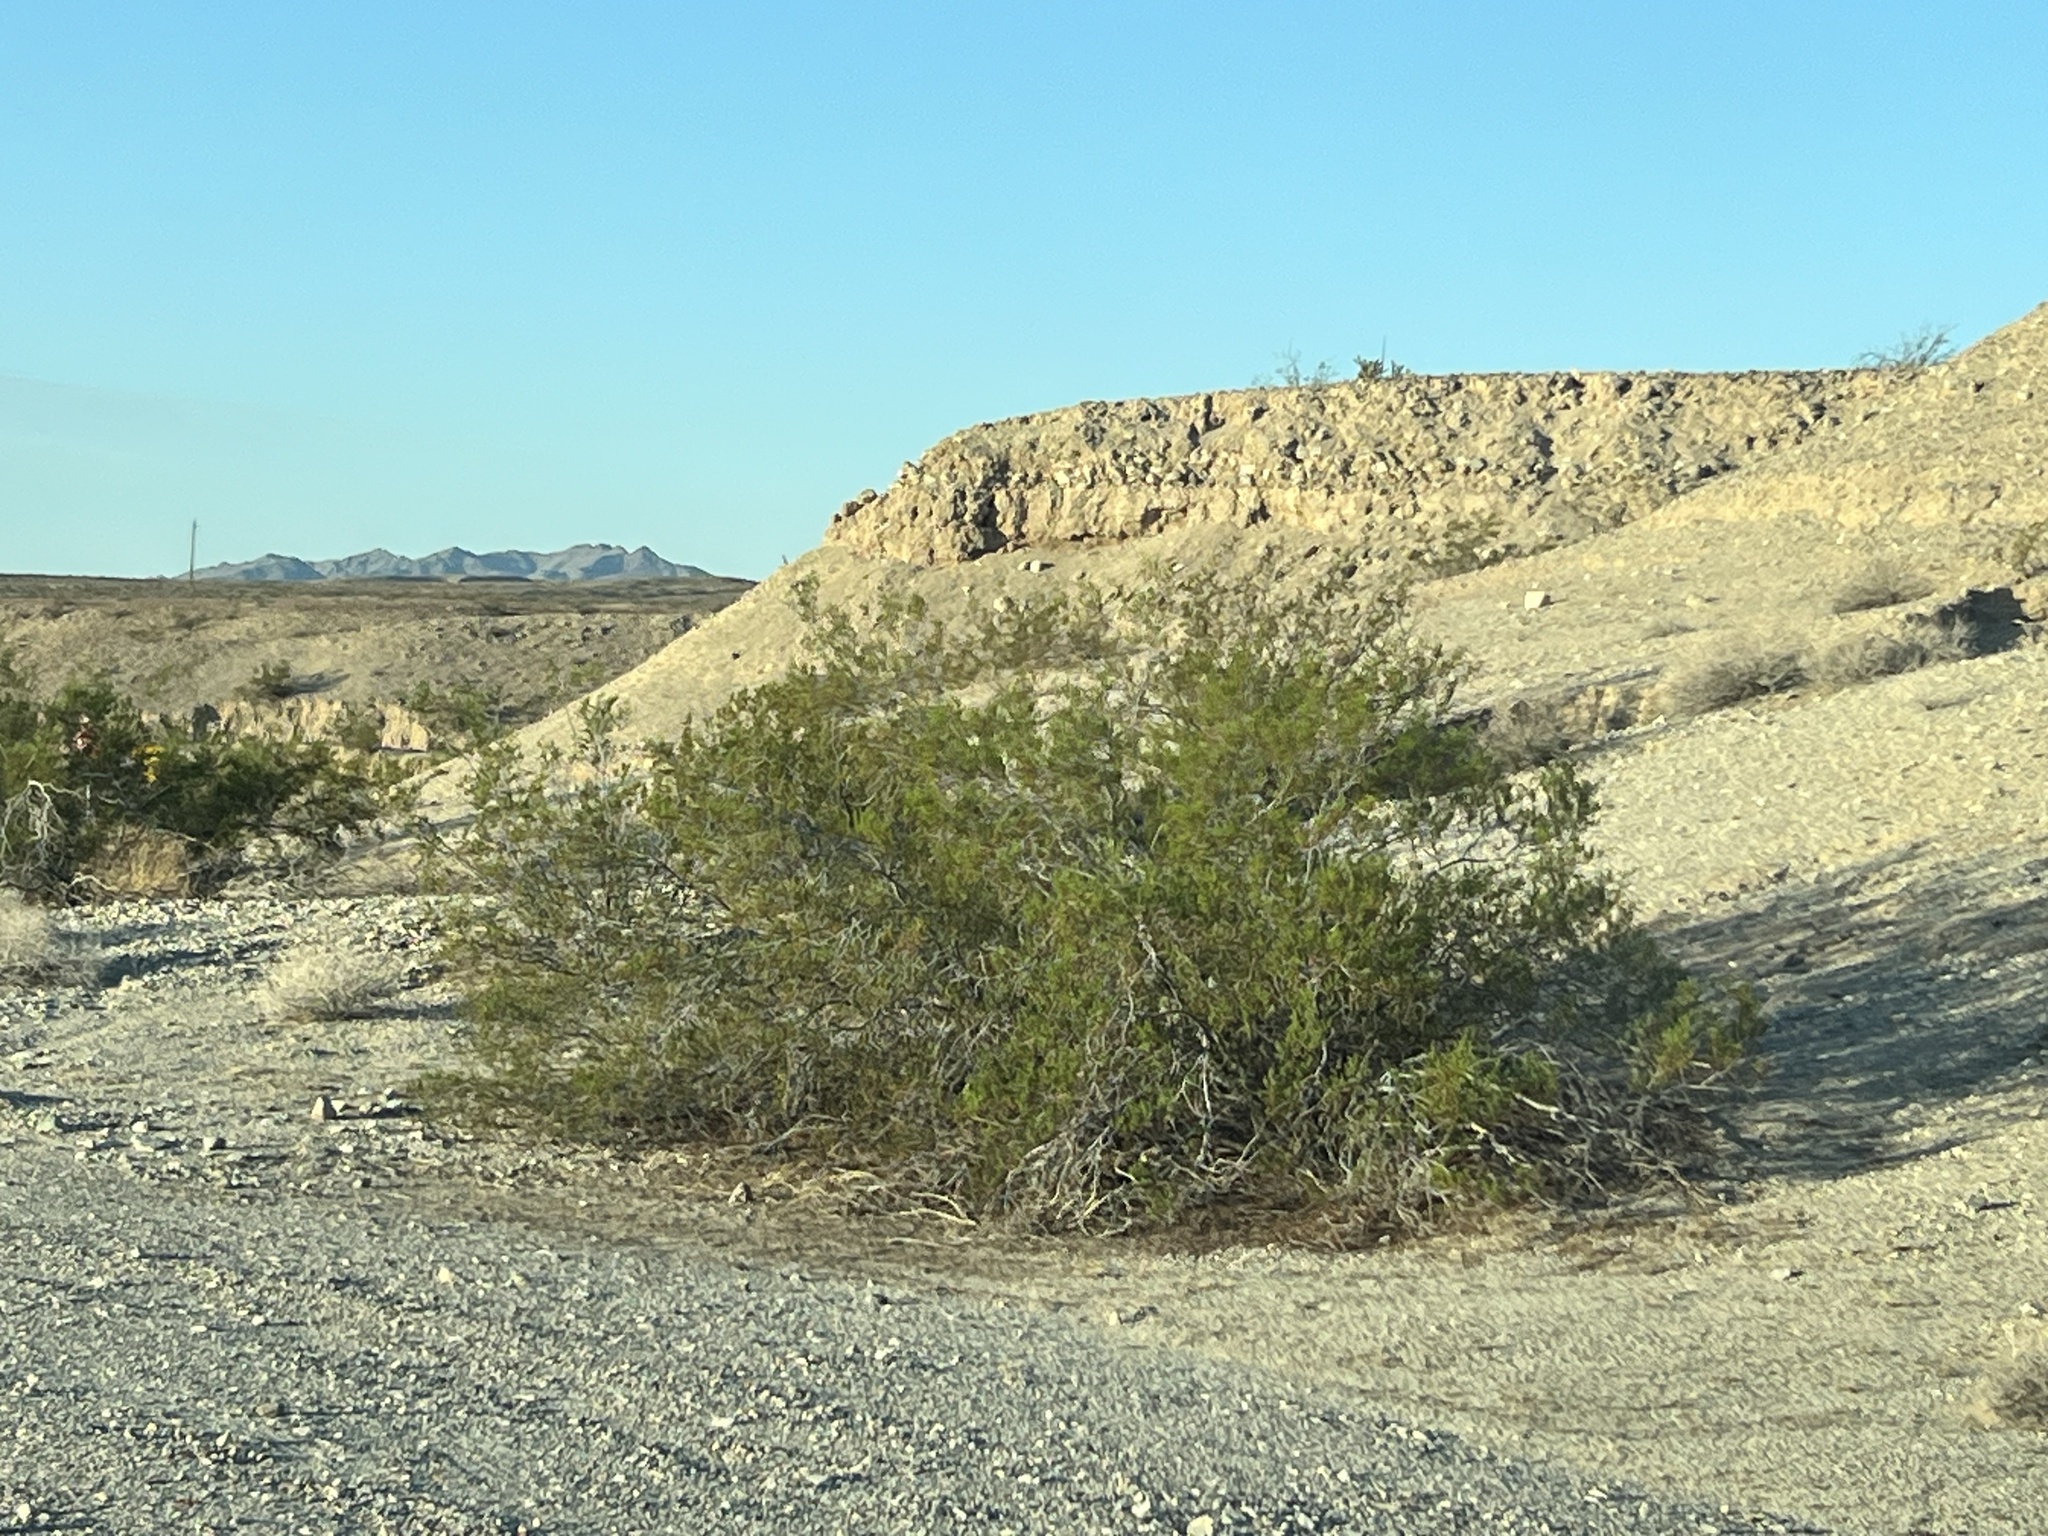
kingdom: Plantae
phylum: Tracheophyta
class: Magnoliopsida
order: Zygophyllales
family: Zygophyllaceae
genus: Larrea
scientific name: Larrea tridentata
